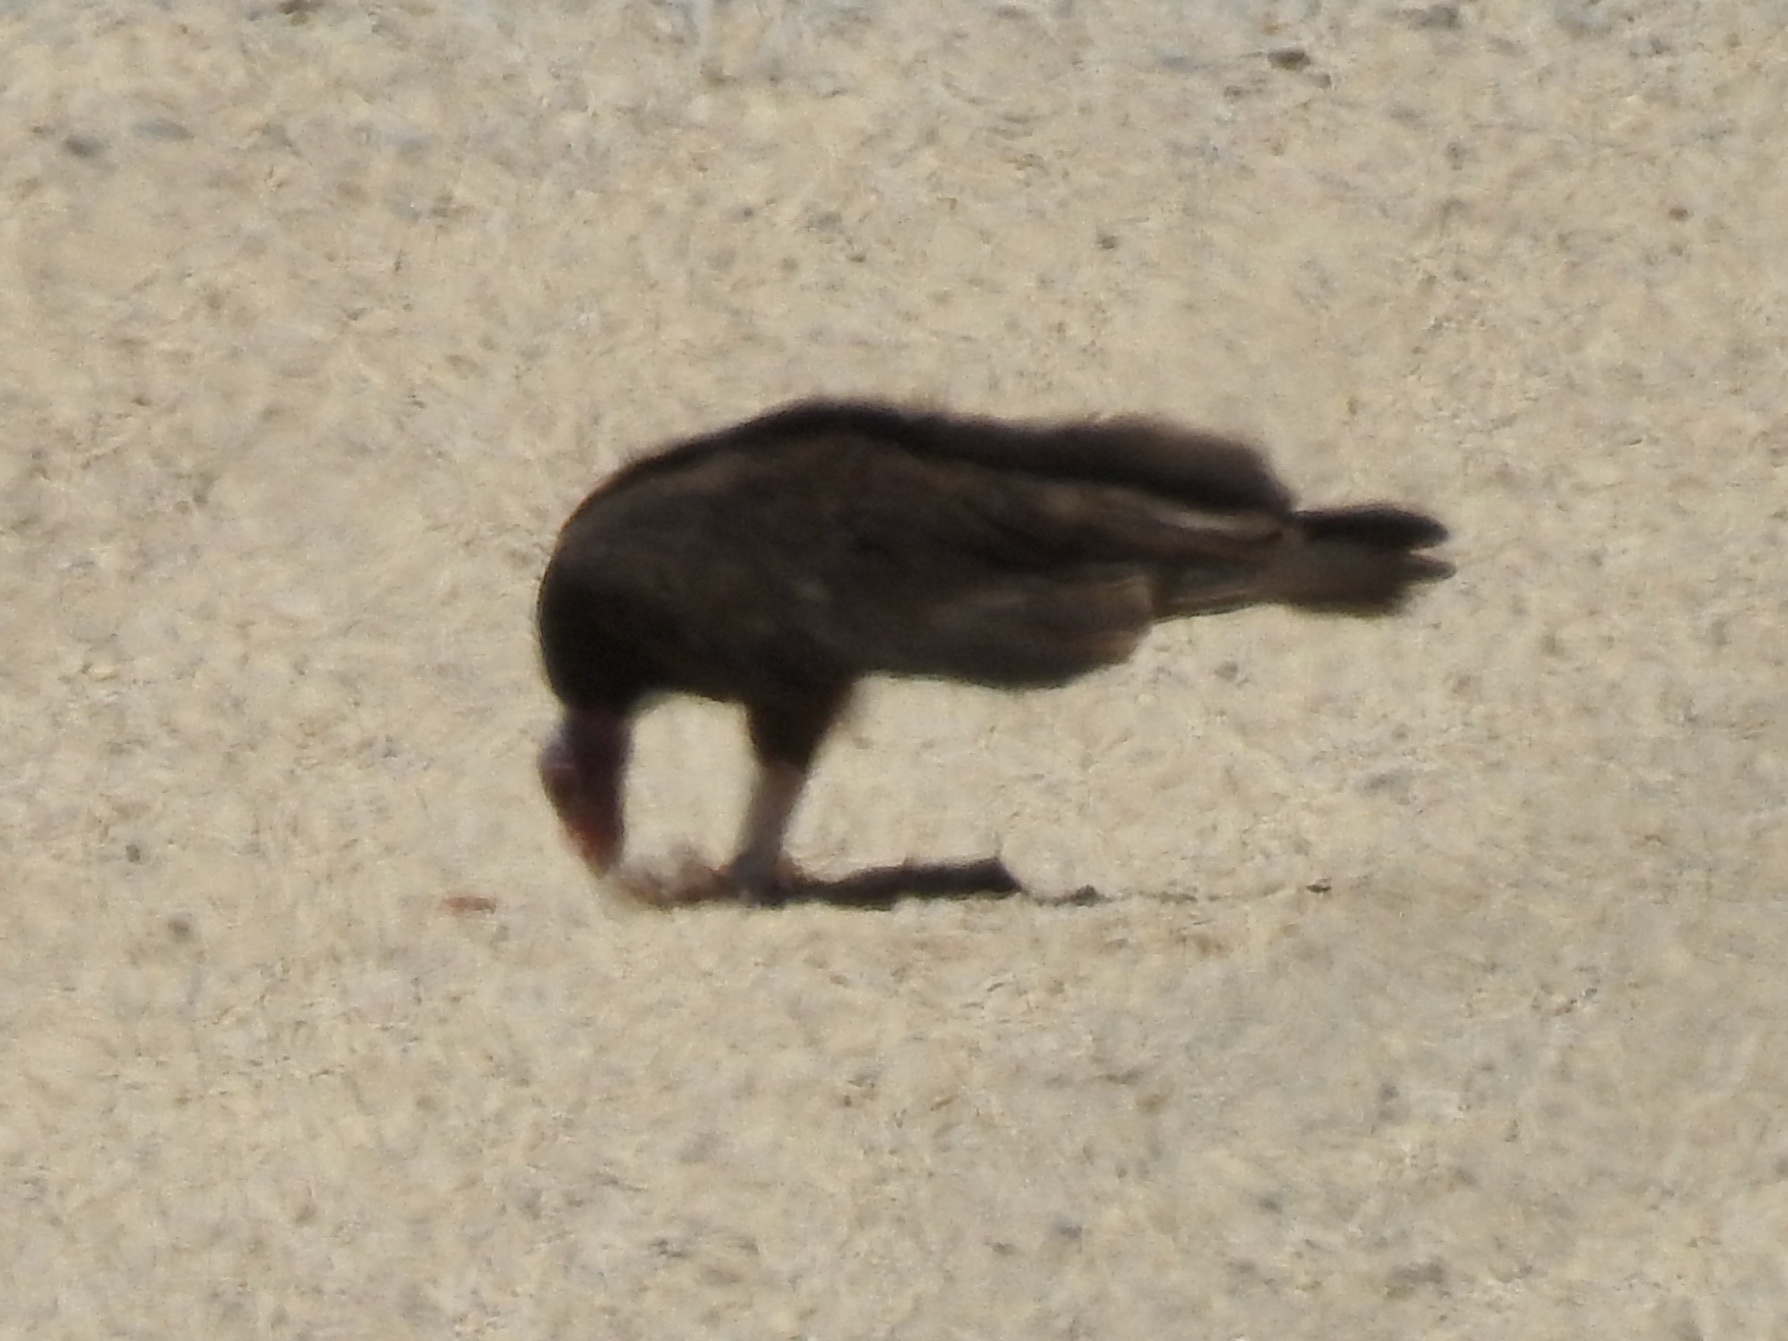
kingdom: Animalia
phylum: Chordata
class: Aves
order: Accipitriformes
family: Cathartidae
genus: Cathartes
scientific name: Cathartes aura
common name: Turkey vulture
